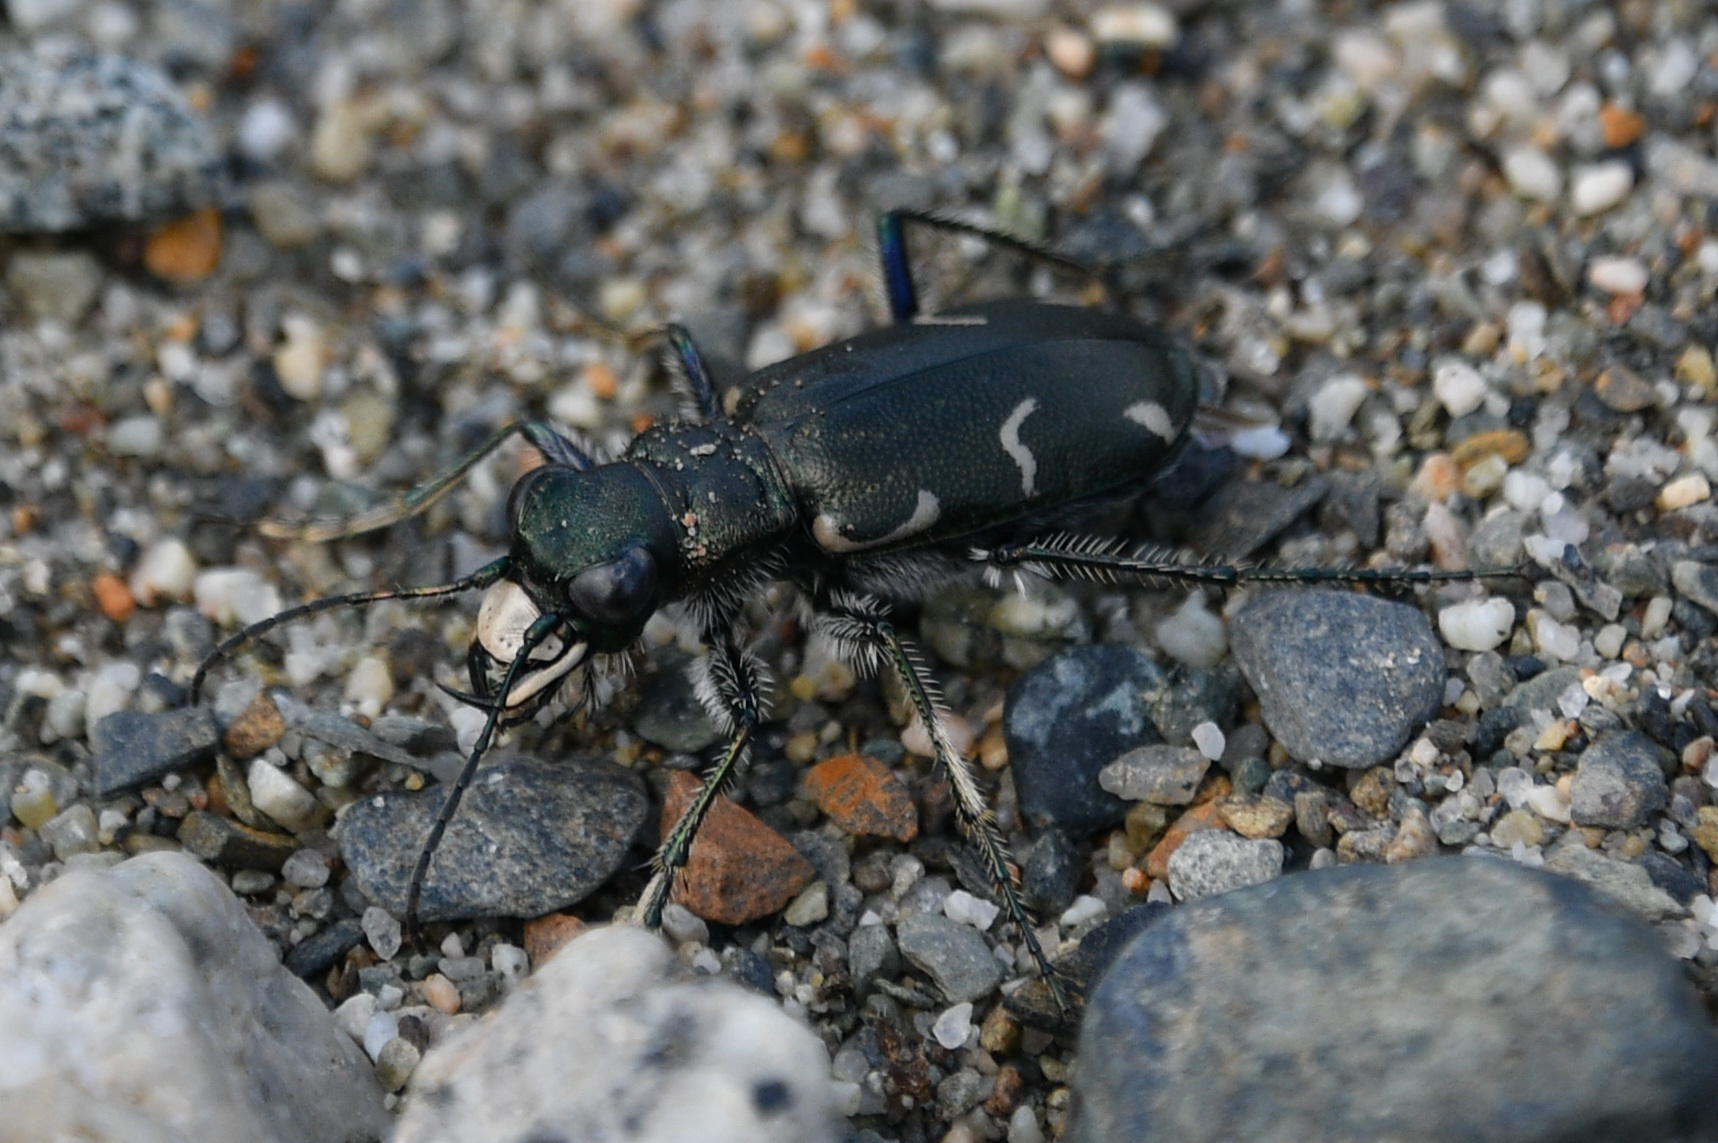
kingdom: Animalia
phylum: Arthropoda
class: Insecta
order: Coleoptera
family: Carabidae
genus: Cicindela
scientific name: Cicindela longilabris
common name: Boreal long-lipped tiger beetle
